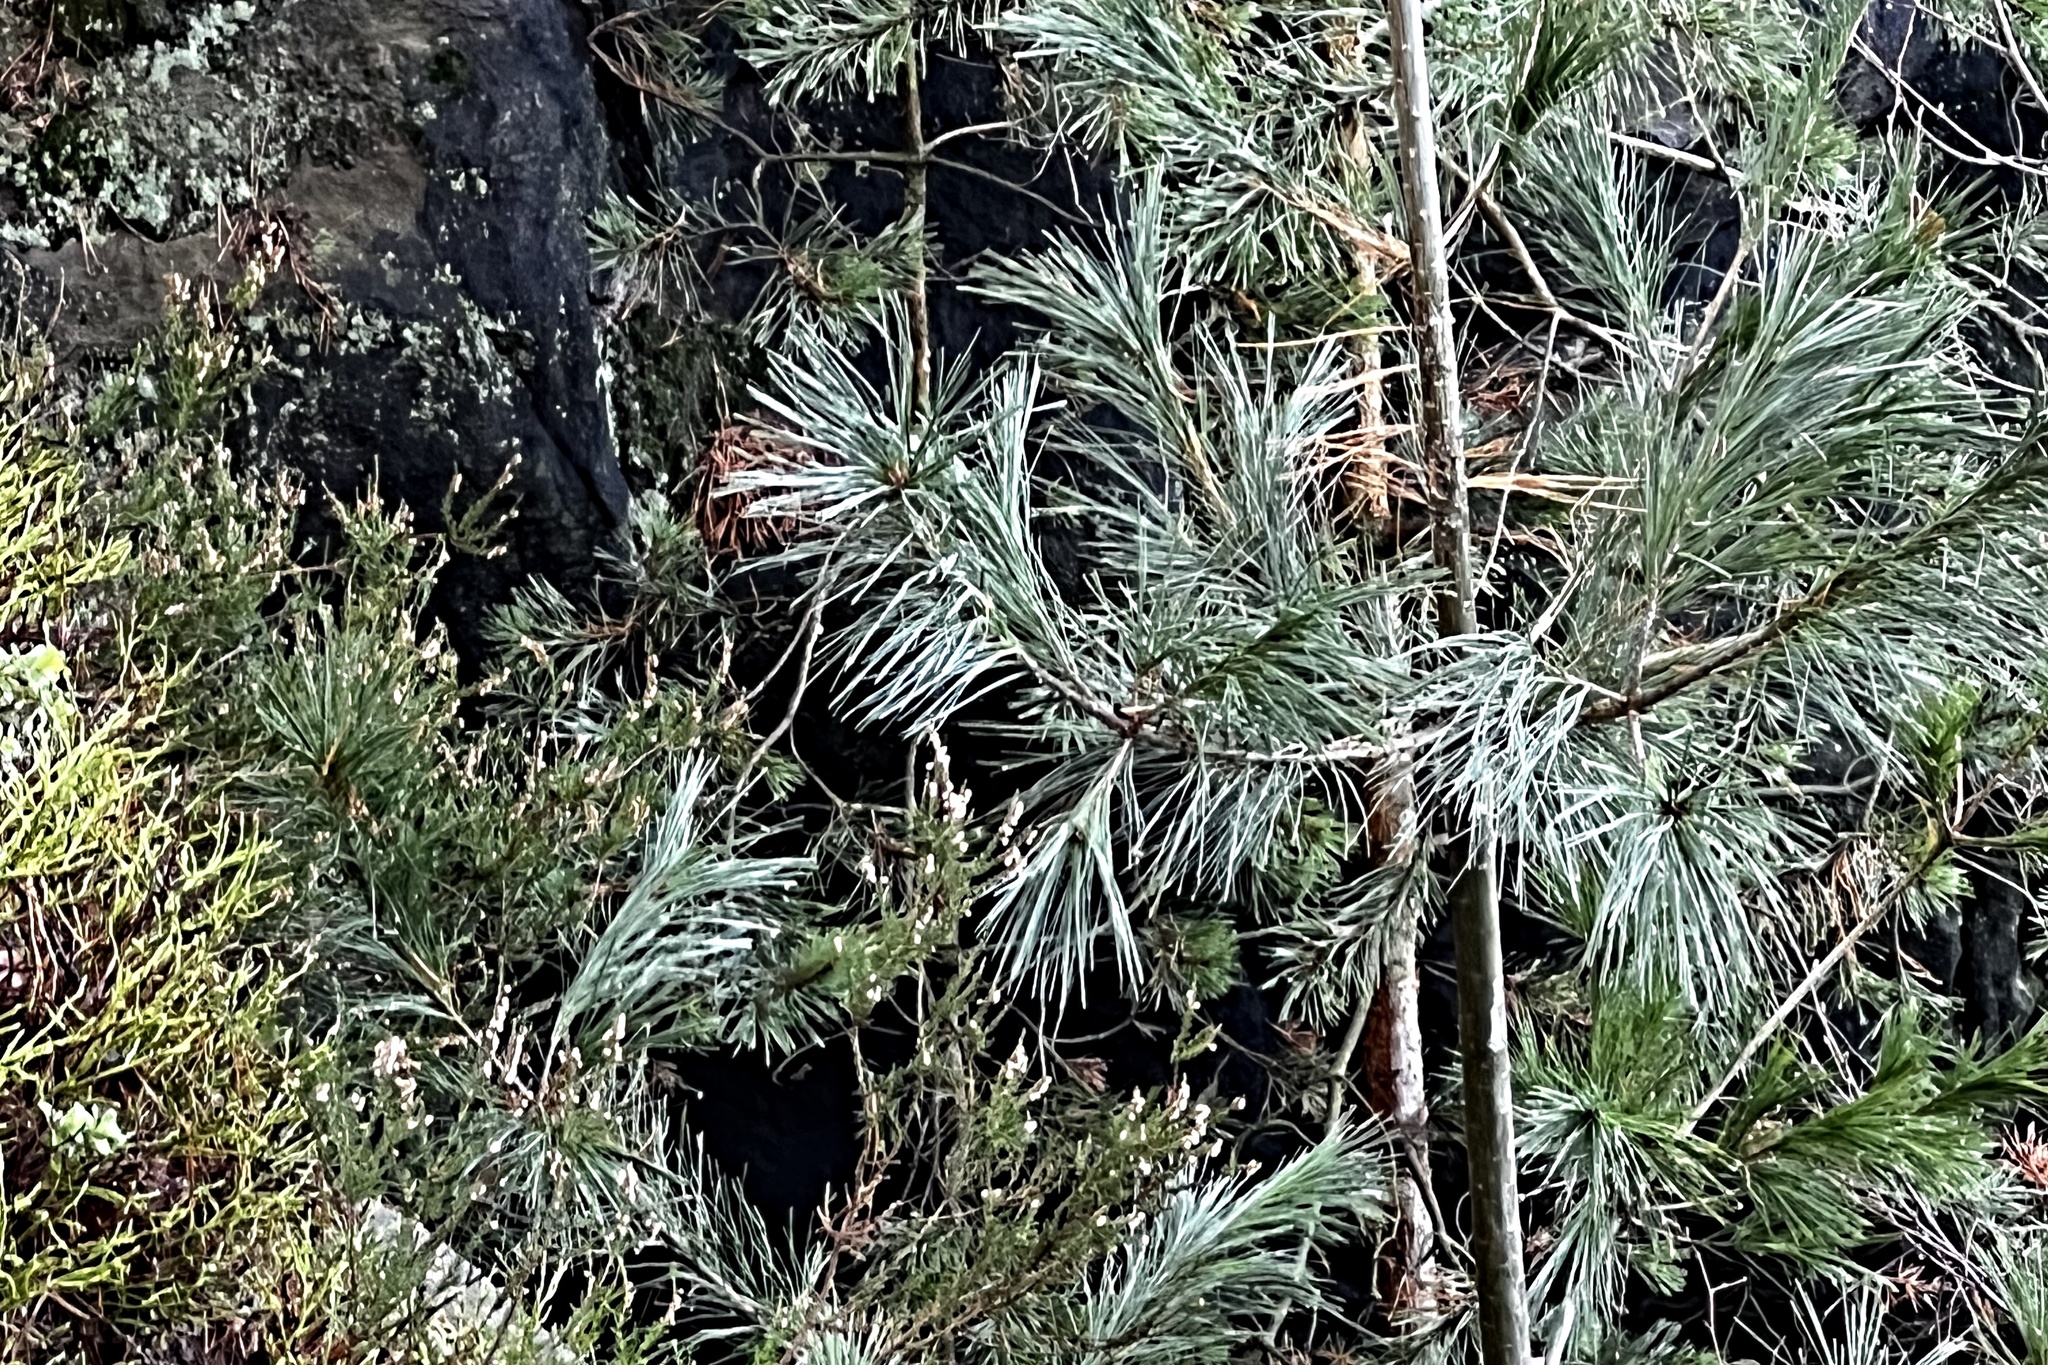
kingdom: Plantae
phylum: Tracheophyta
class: Pinopsida
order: Pinales
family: Pinaceae
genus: Pinus
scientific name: Pinus strobus
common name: Weymouth pine
